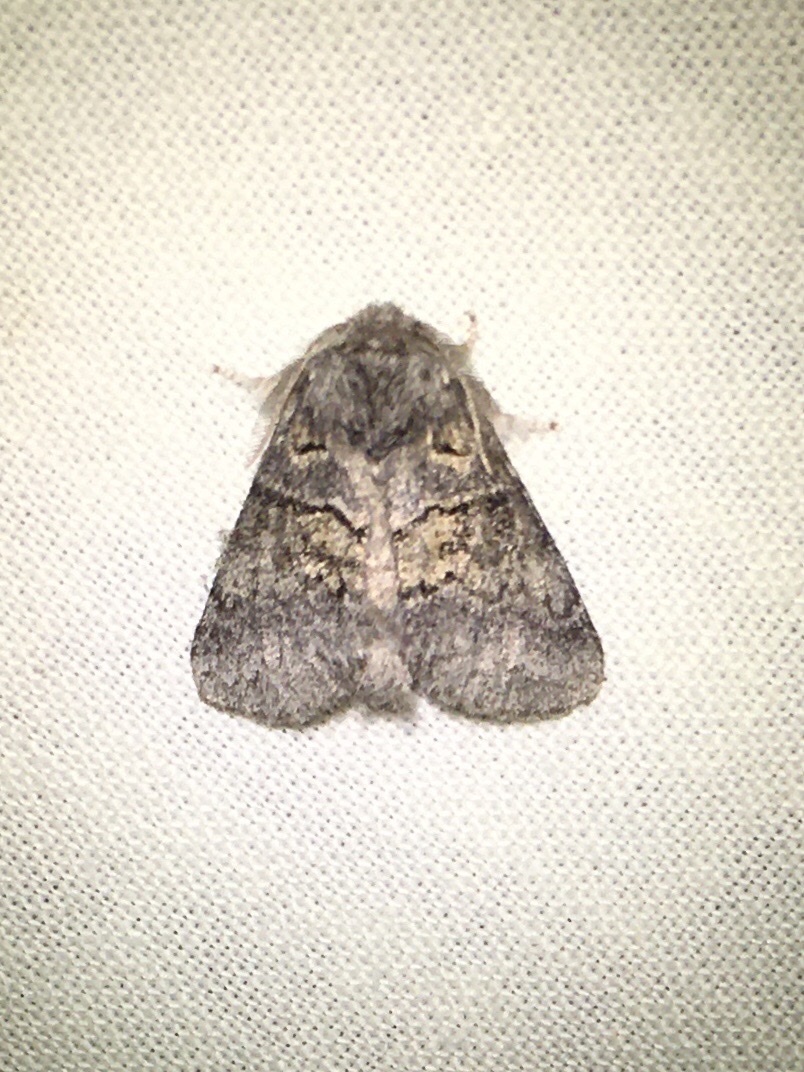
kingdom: Animalia
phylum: Arthropoda
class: Insecta
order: Lepidoptera
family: Notodontidae
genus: Gluphisia
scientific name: Gluphisia septentrionis
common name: Common gluphisia
